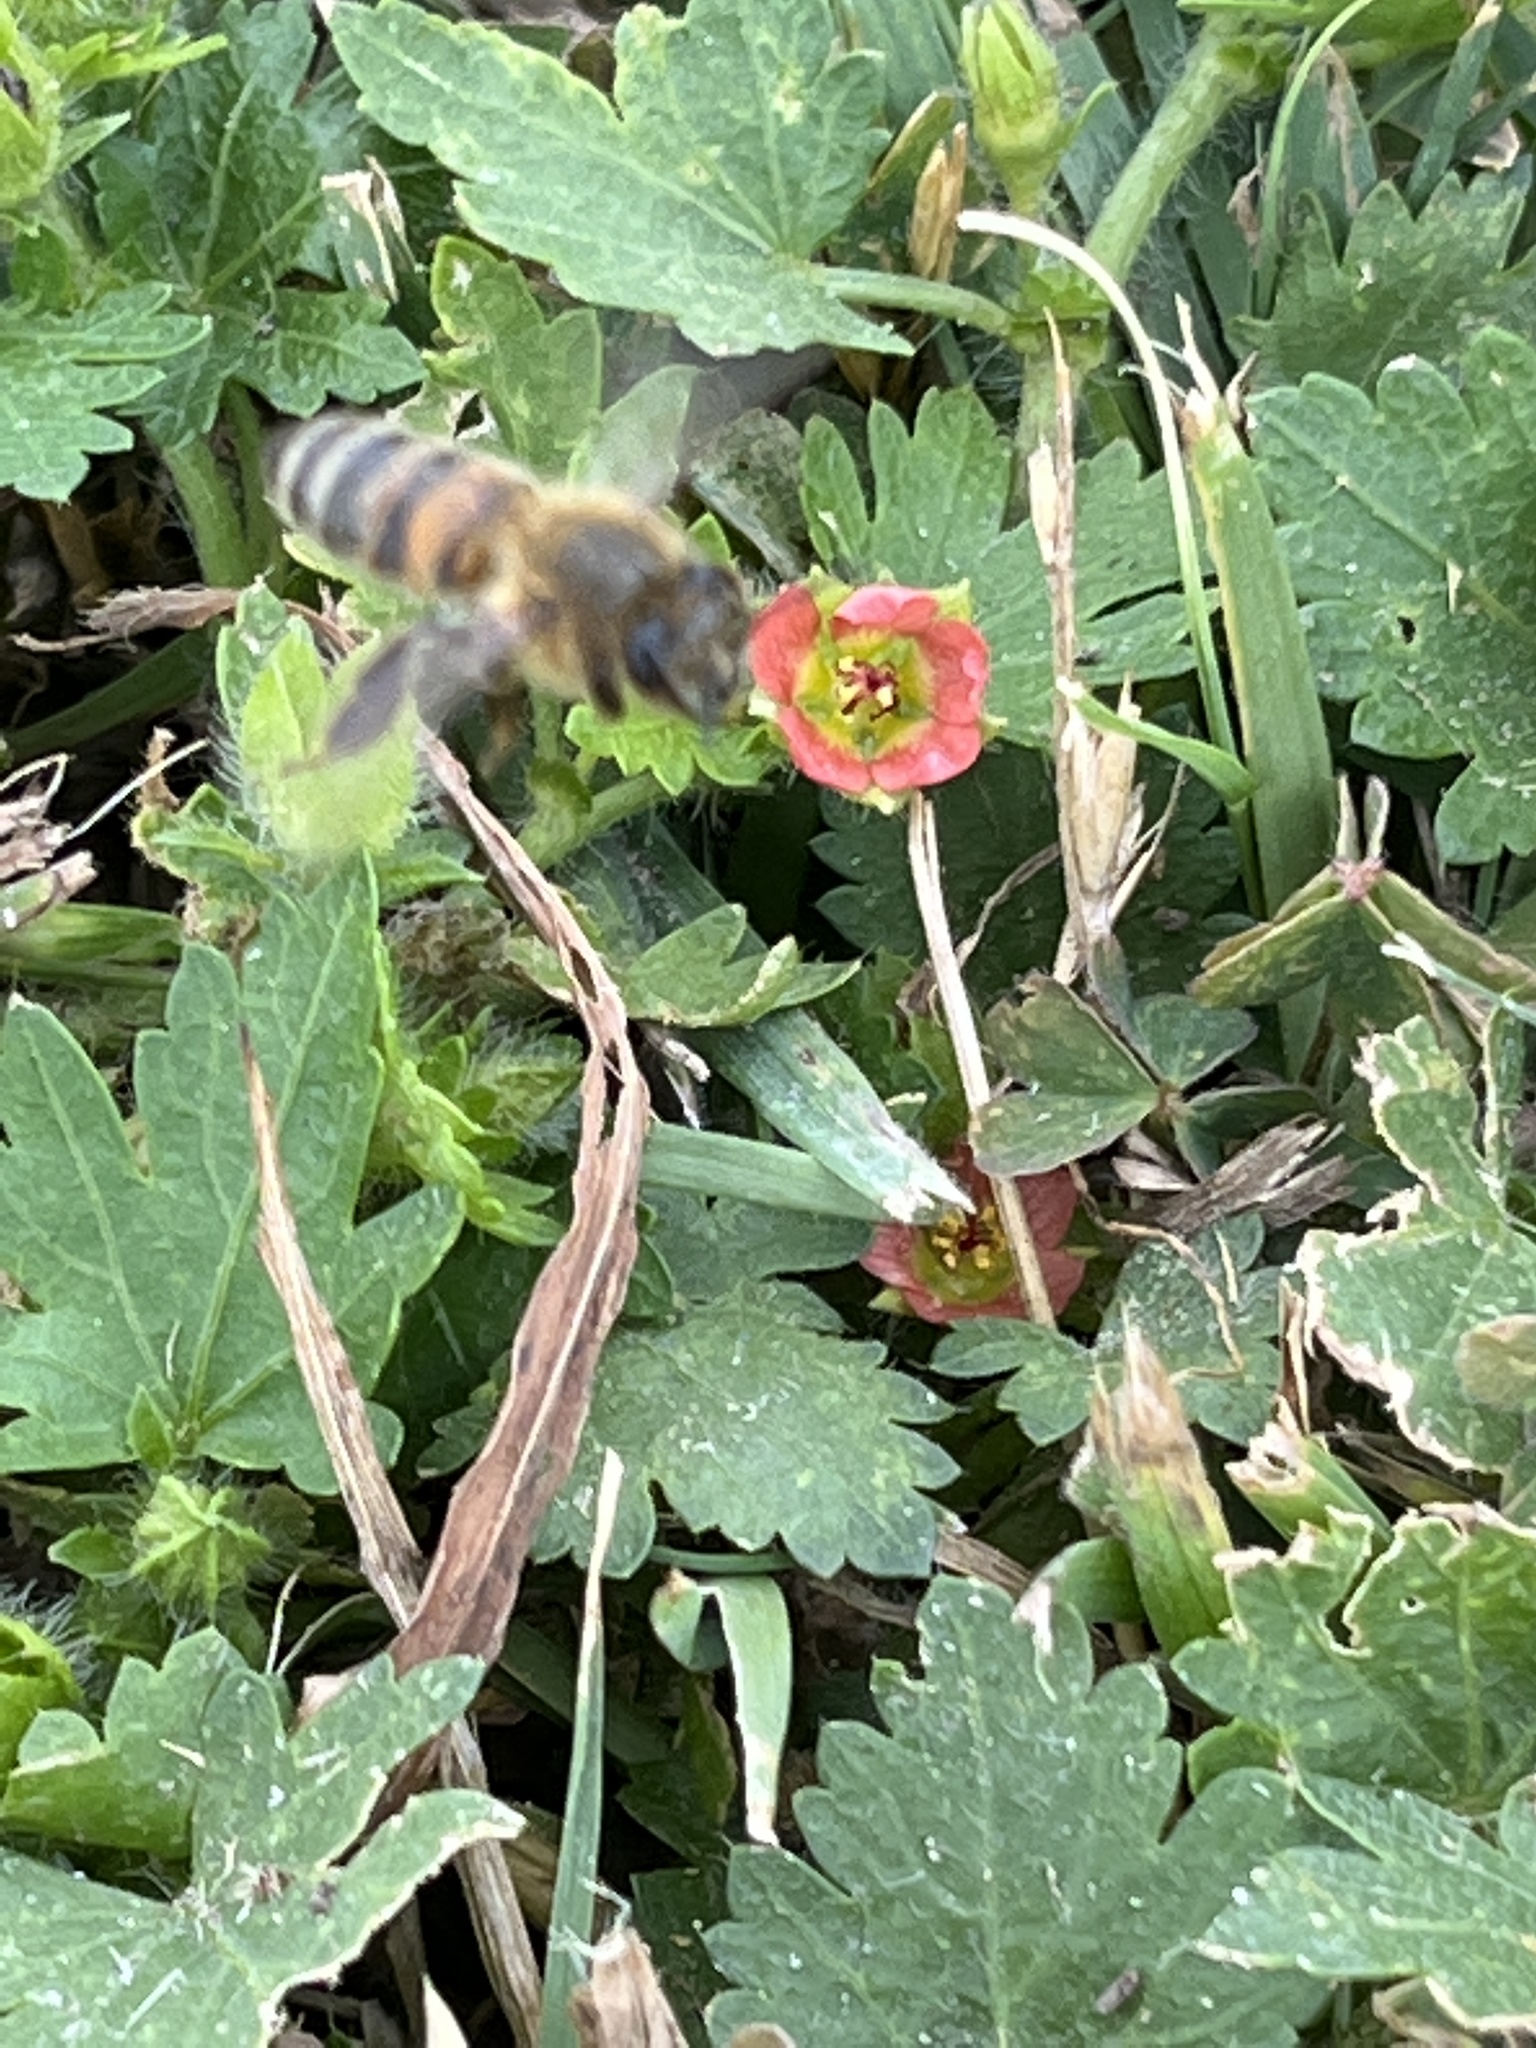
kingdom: Animalia
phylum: Arthropoda
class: Insecta
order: Hymenoptera
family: Apidae
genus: Apis
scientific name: Apis mellifera
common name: Honey bee
